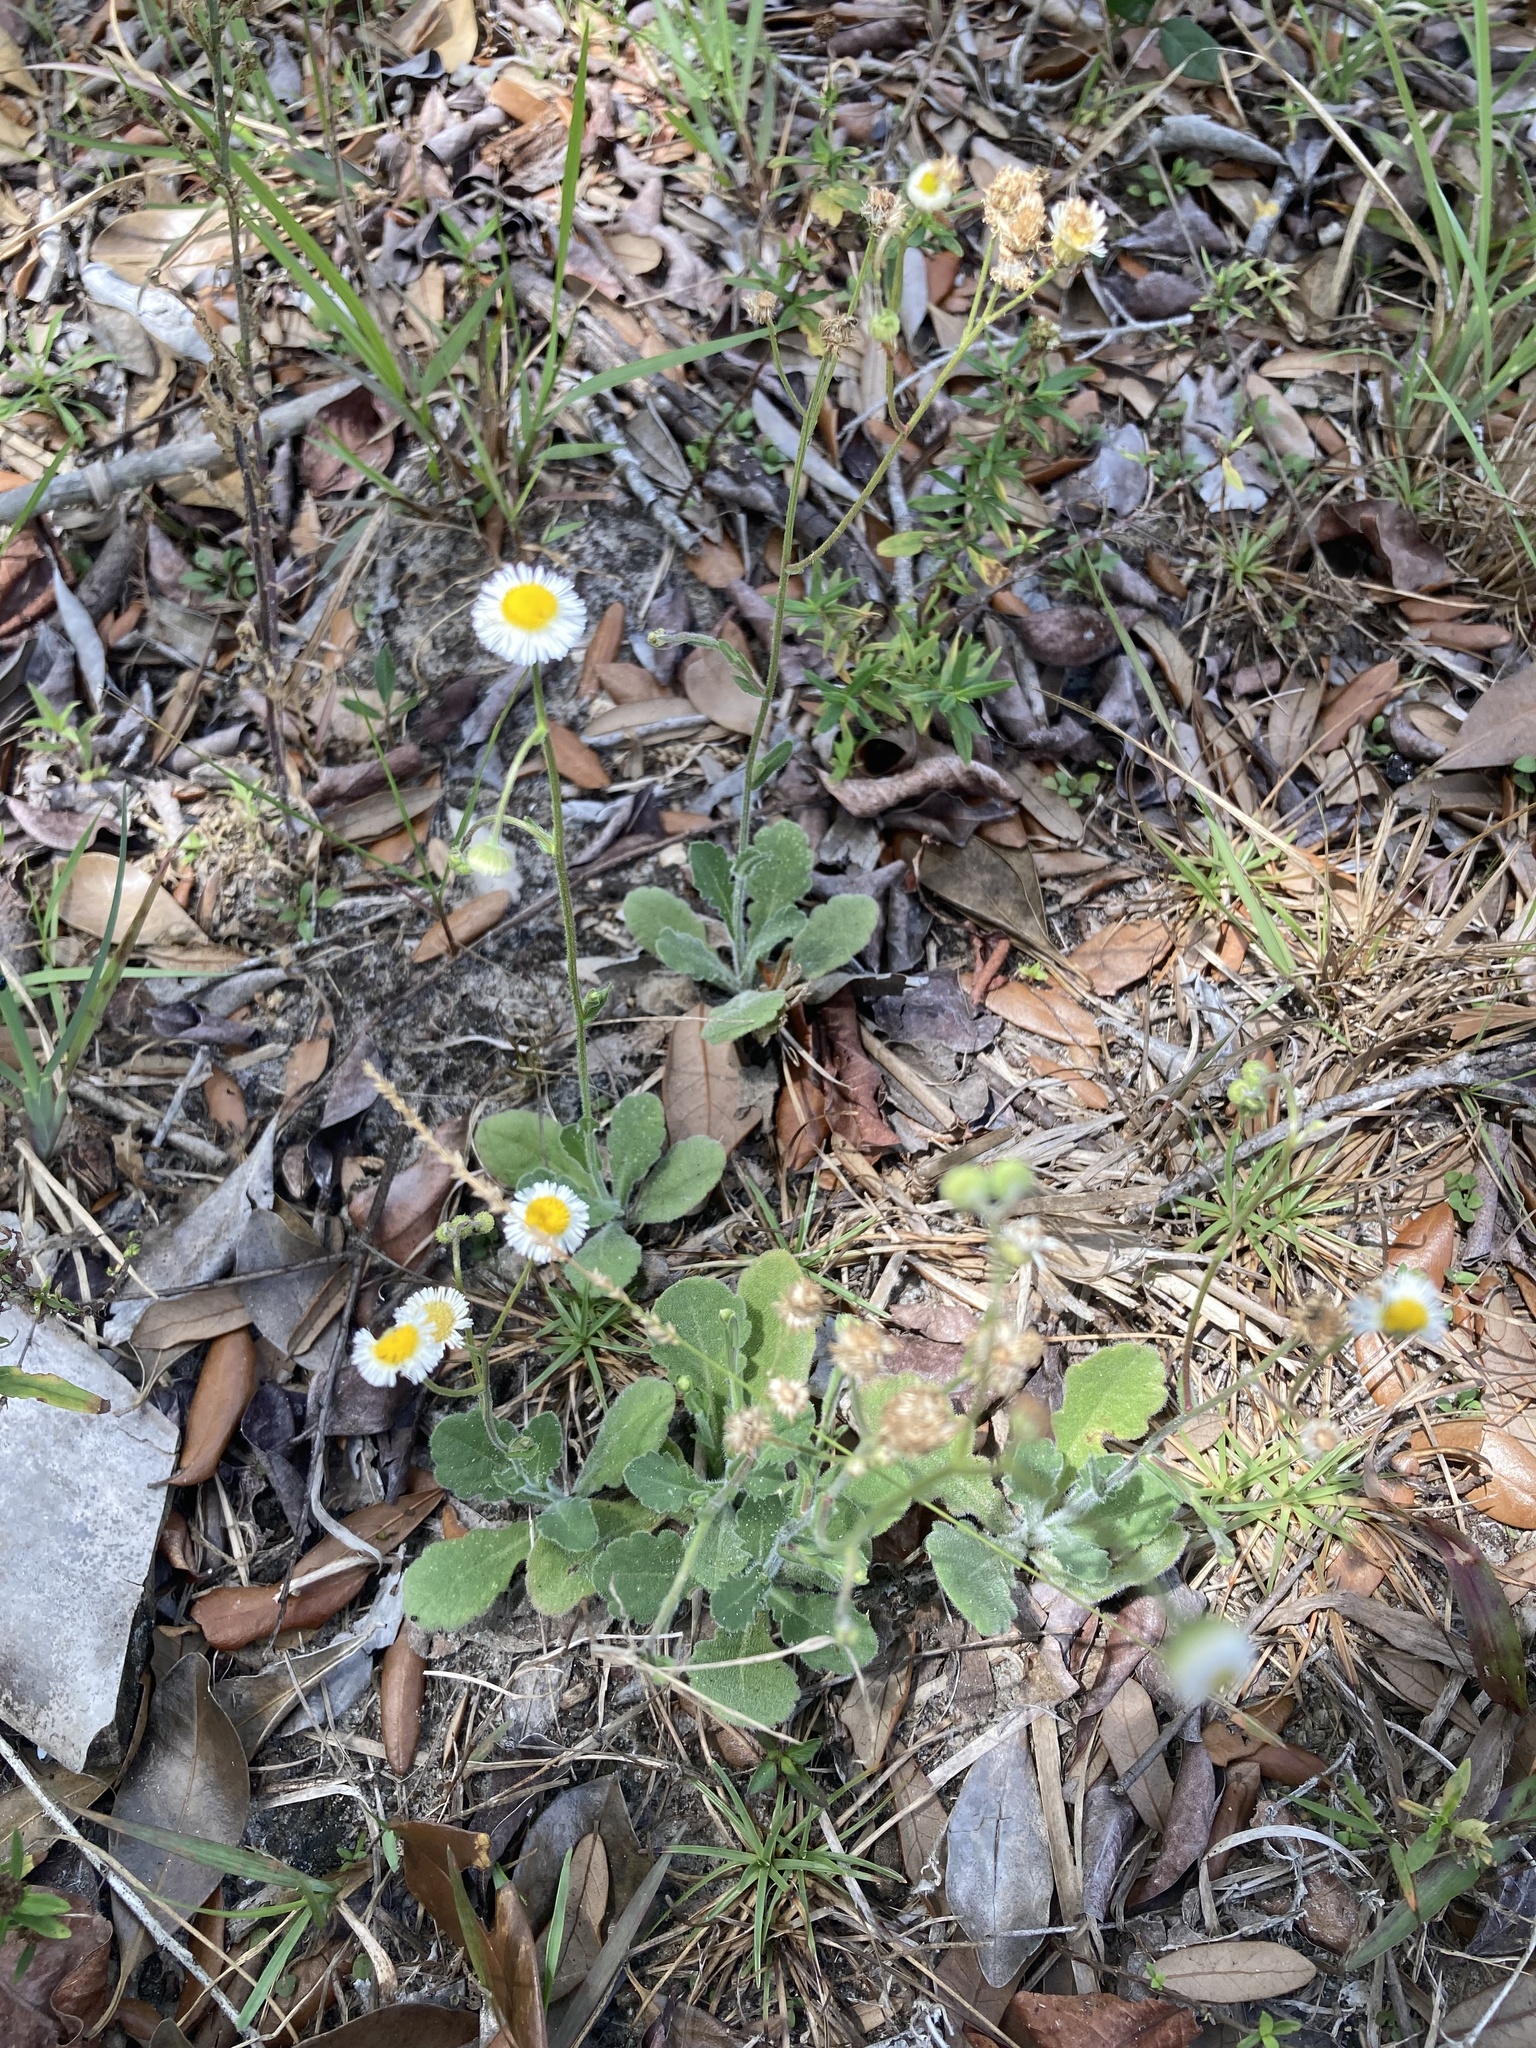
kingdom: Plantae
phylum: Tracheophyta
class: Magnoliopsida
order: Asterales
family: Asteraceae
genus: Erigeron
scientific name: Erigeron quercifolius
